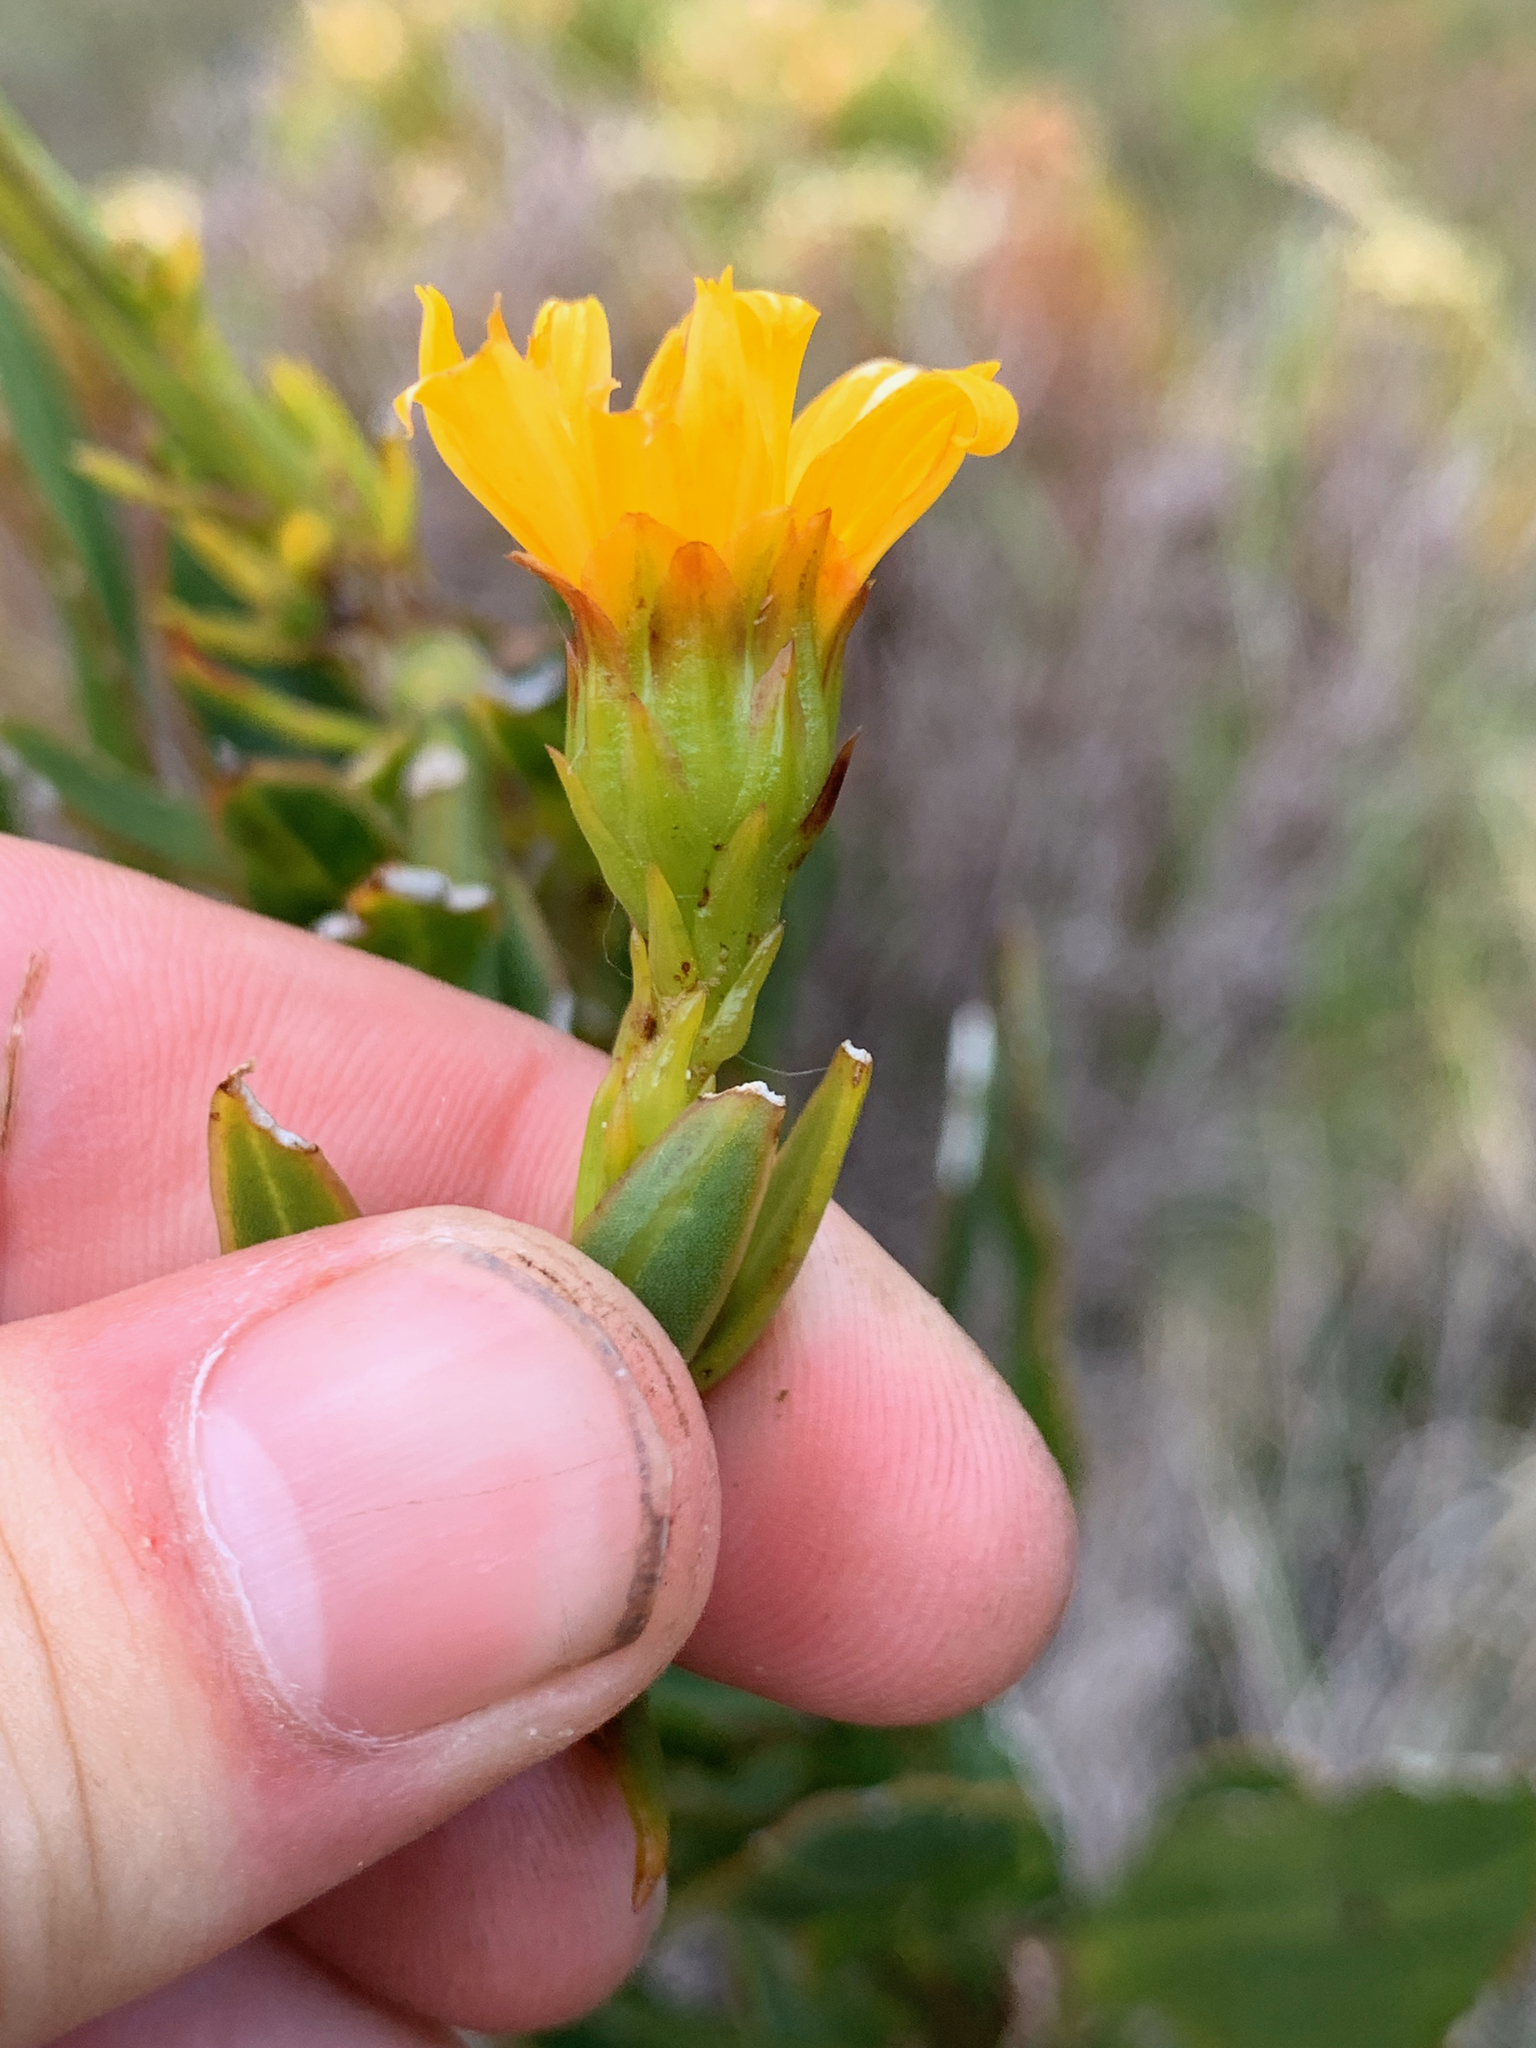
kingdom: Plantae
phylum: Tracheophyta
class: Magnoliopsida
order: Asterales
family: Asteraceae
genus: Osteospermum
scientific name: Osteospermum junceum
